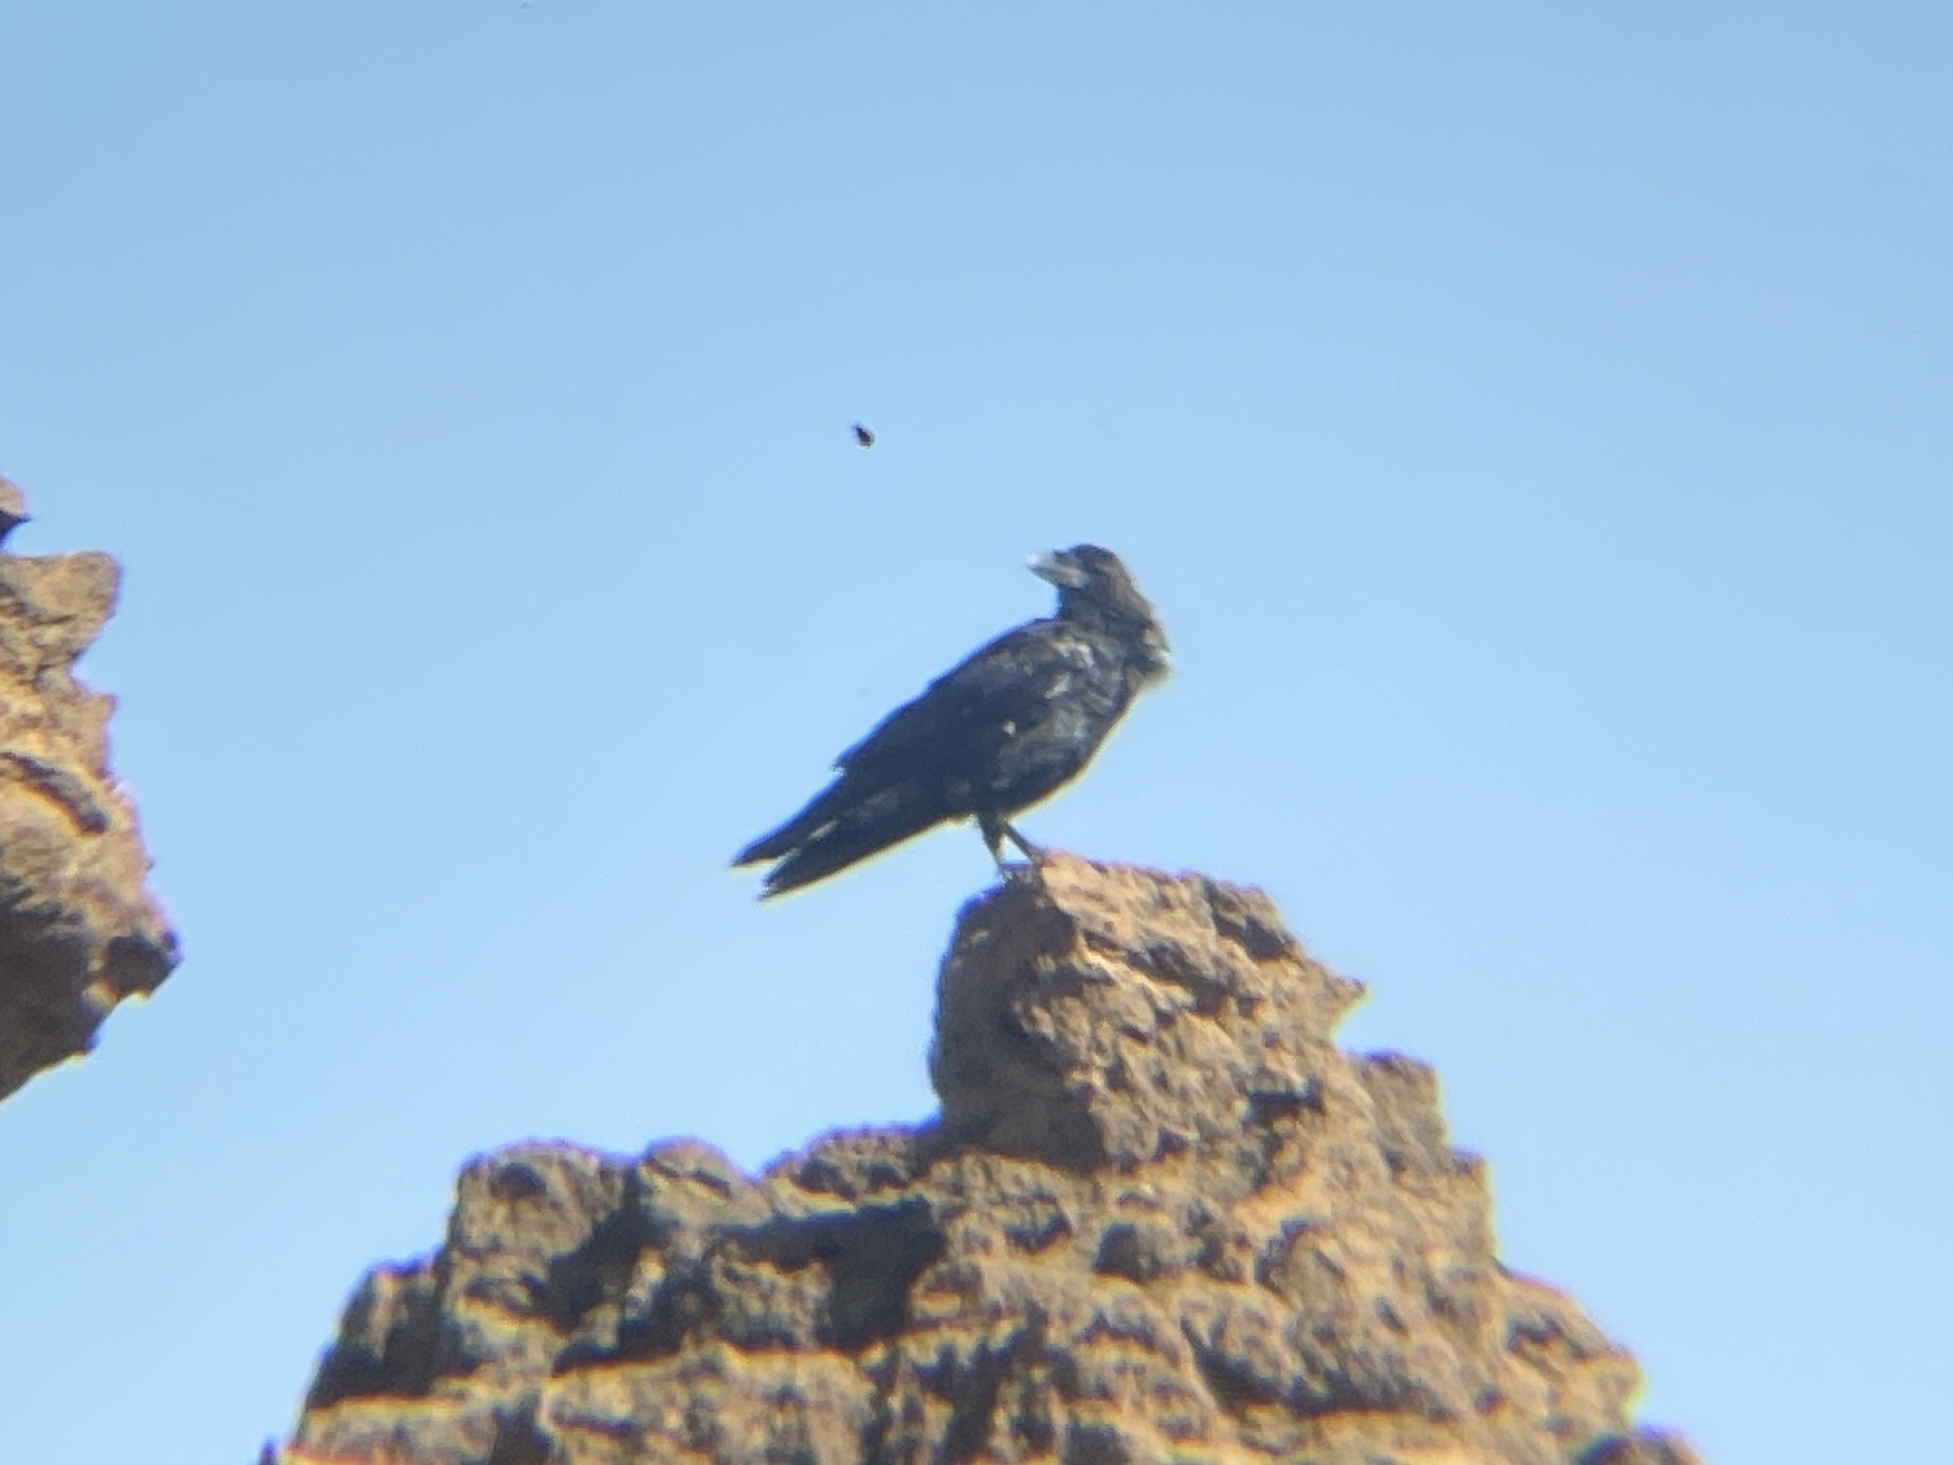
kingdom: Animalia
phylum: Chordata
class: Aves
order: Passeriformes
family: Corvidae
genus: Corvus
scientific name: Corvus corax
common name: Common raven
